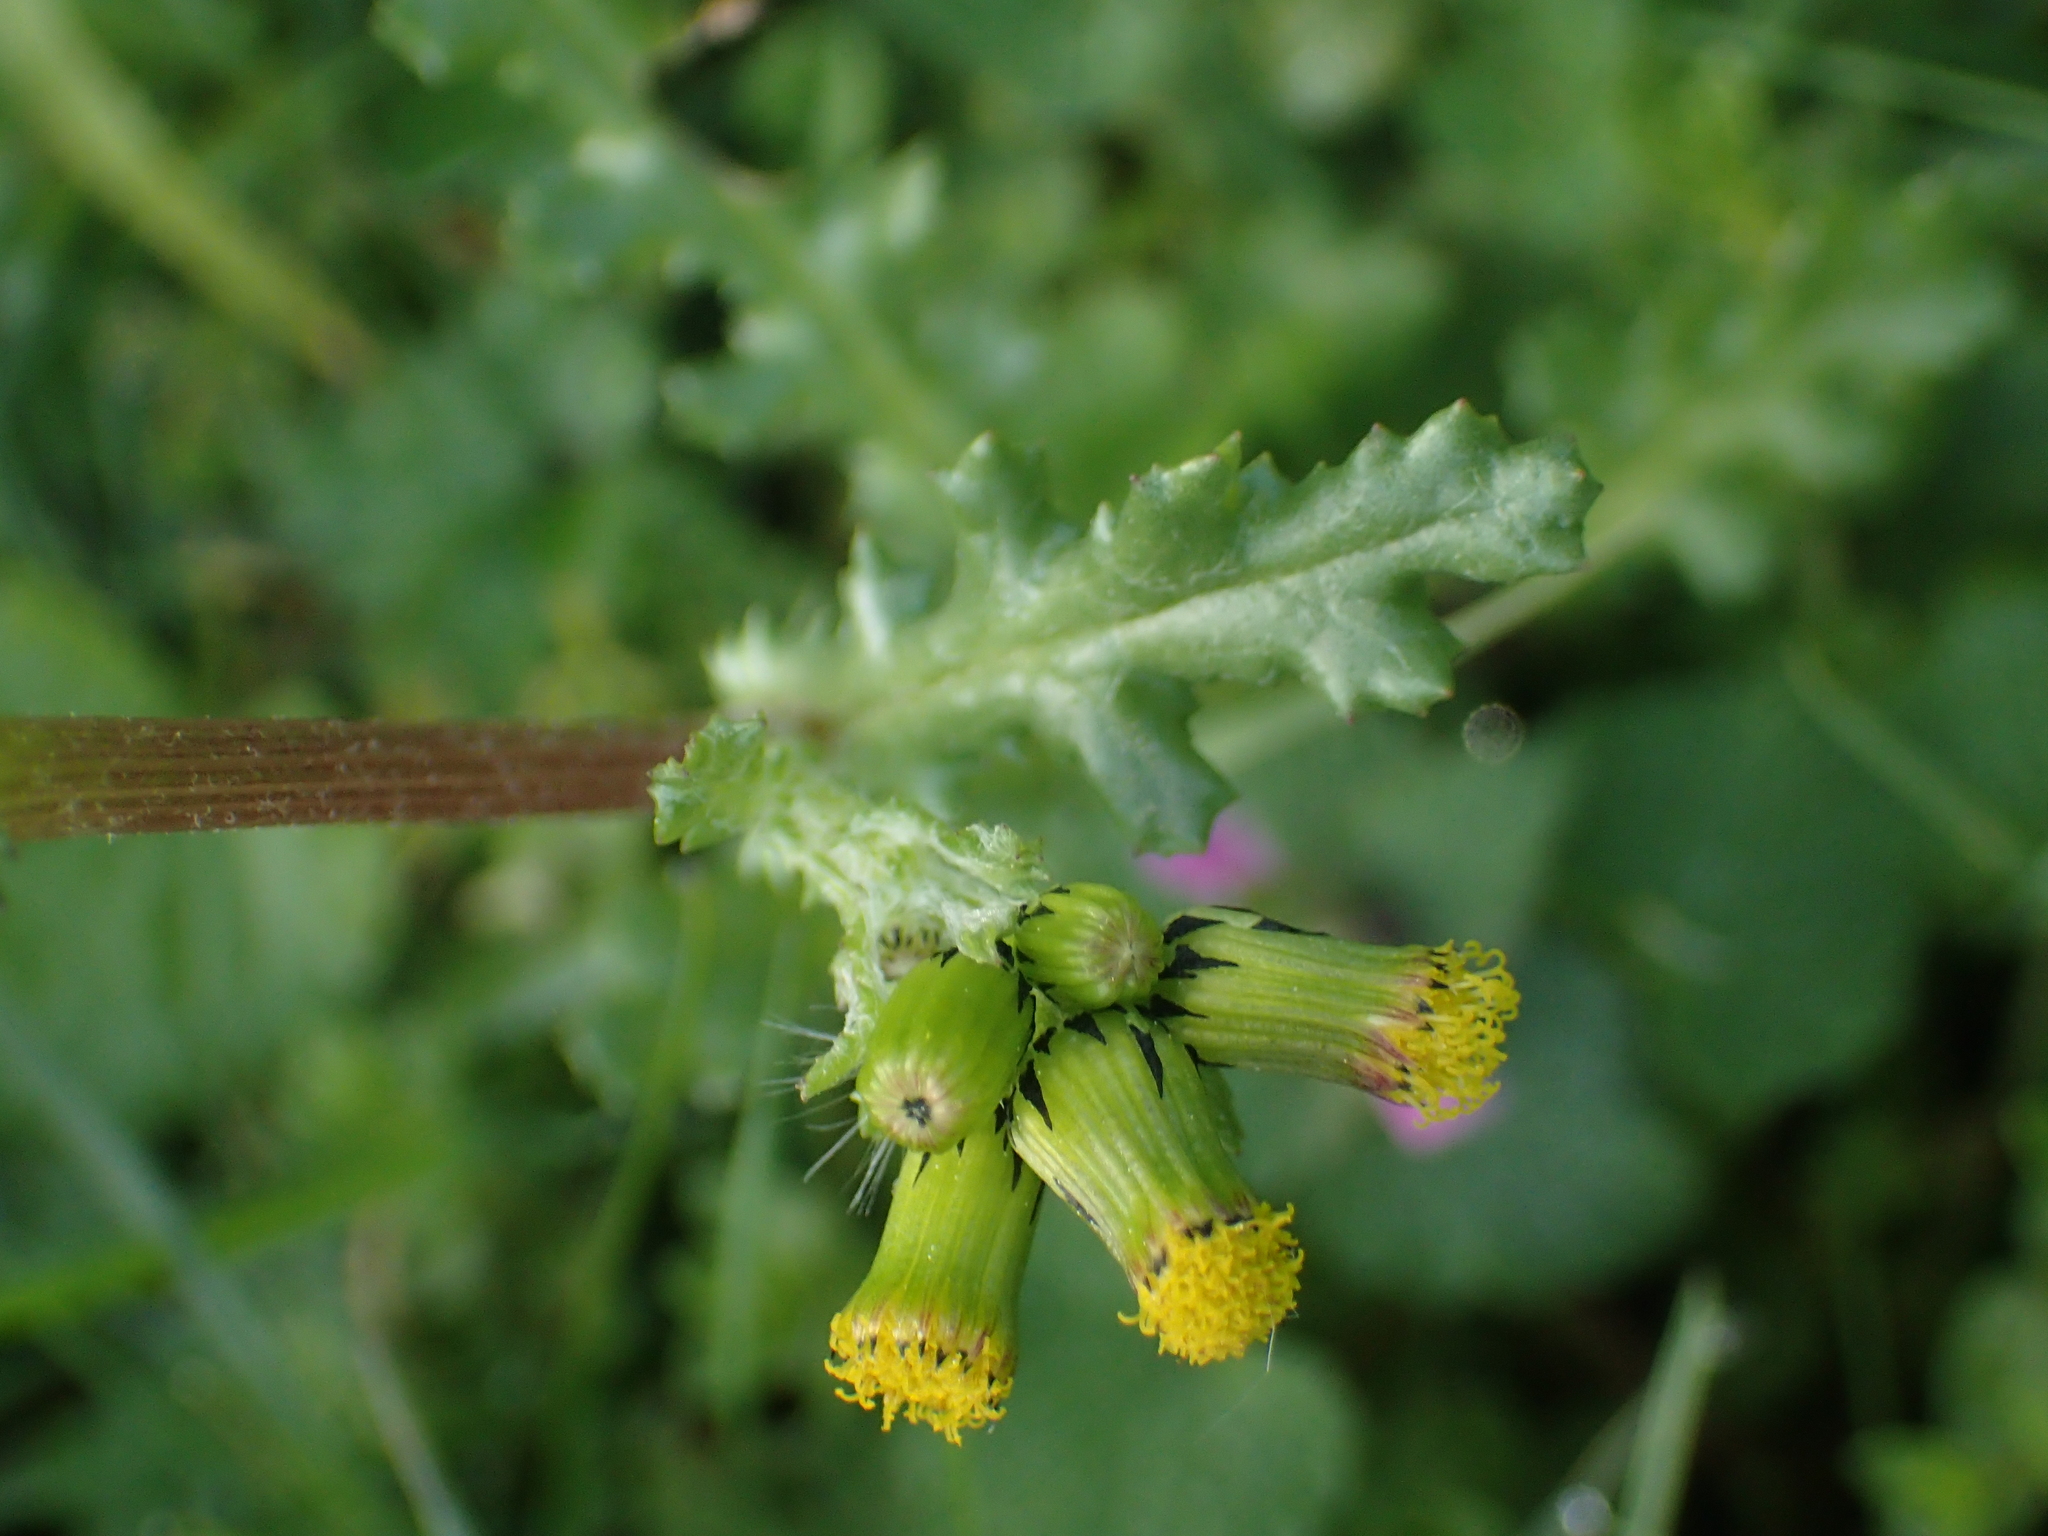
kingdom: Plantae
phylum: Tracheophyta
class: Magnoliopsida
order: Asterales
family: Asteraceae
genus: Senecio
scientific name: Senecio vulgaris
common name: Old-man-in-the-spring
